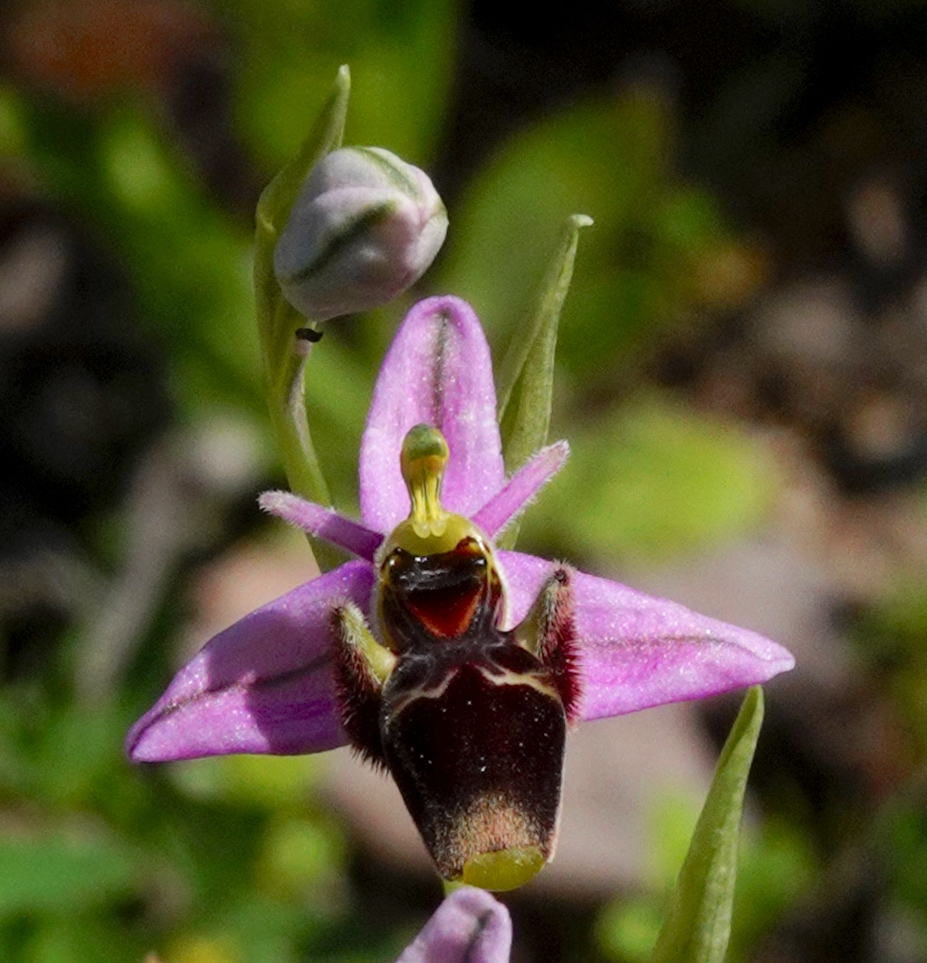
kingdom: Plantae
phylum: Tracheophyta
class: Liliopsida
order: Asparagales
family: Orchidaceae
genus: Ophrys
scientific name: Ophrys scolopax
